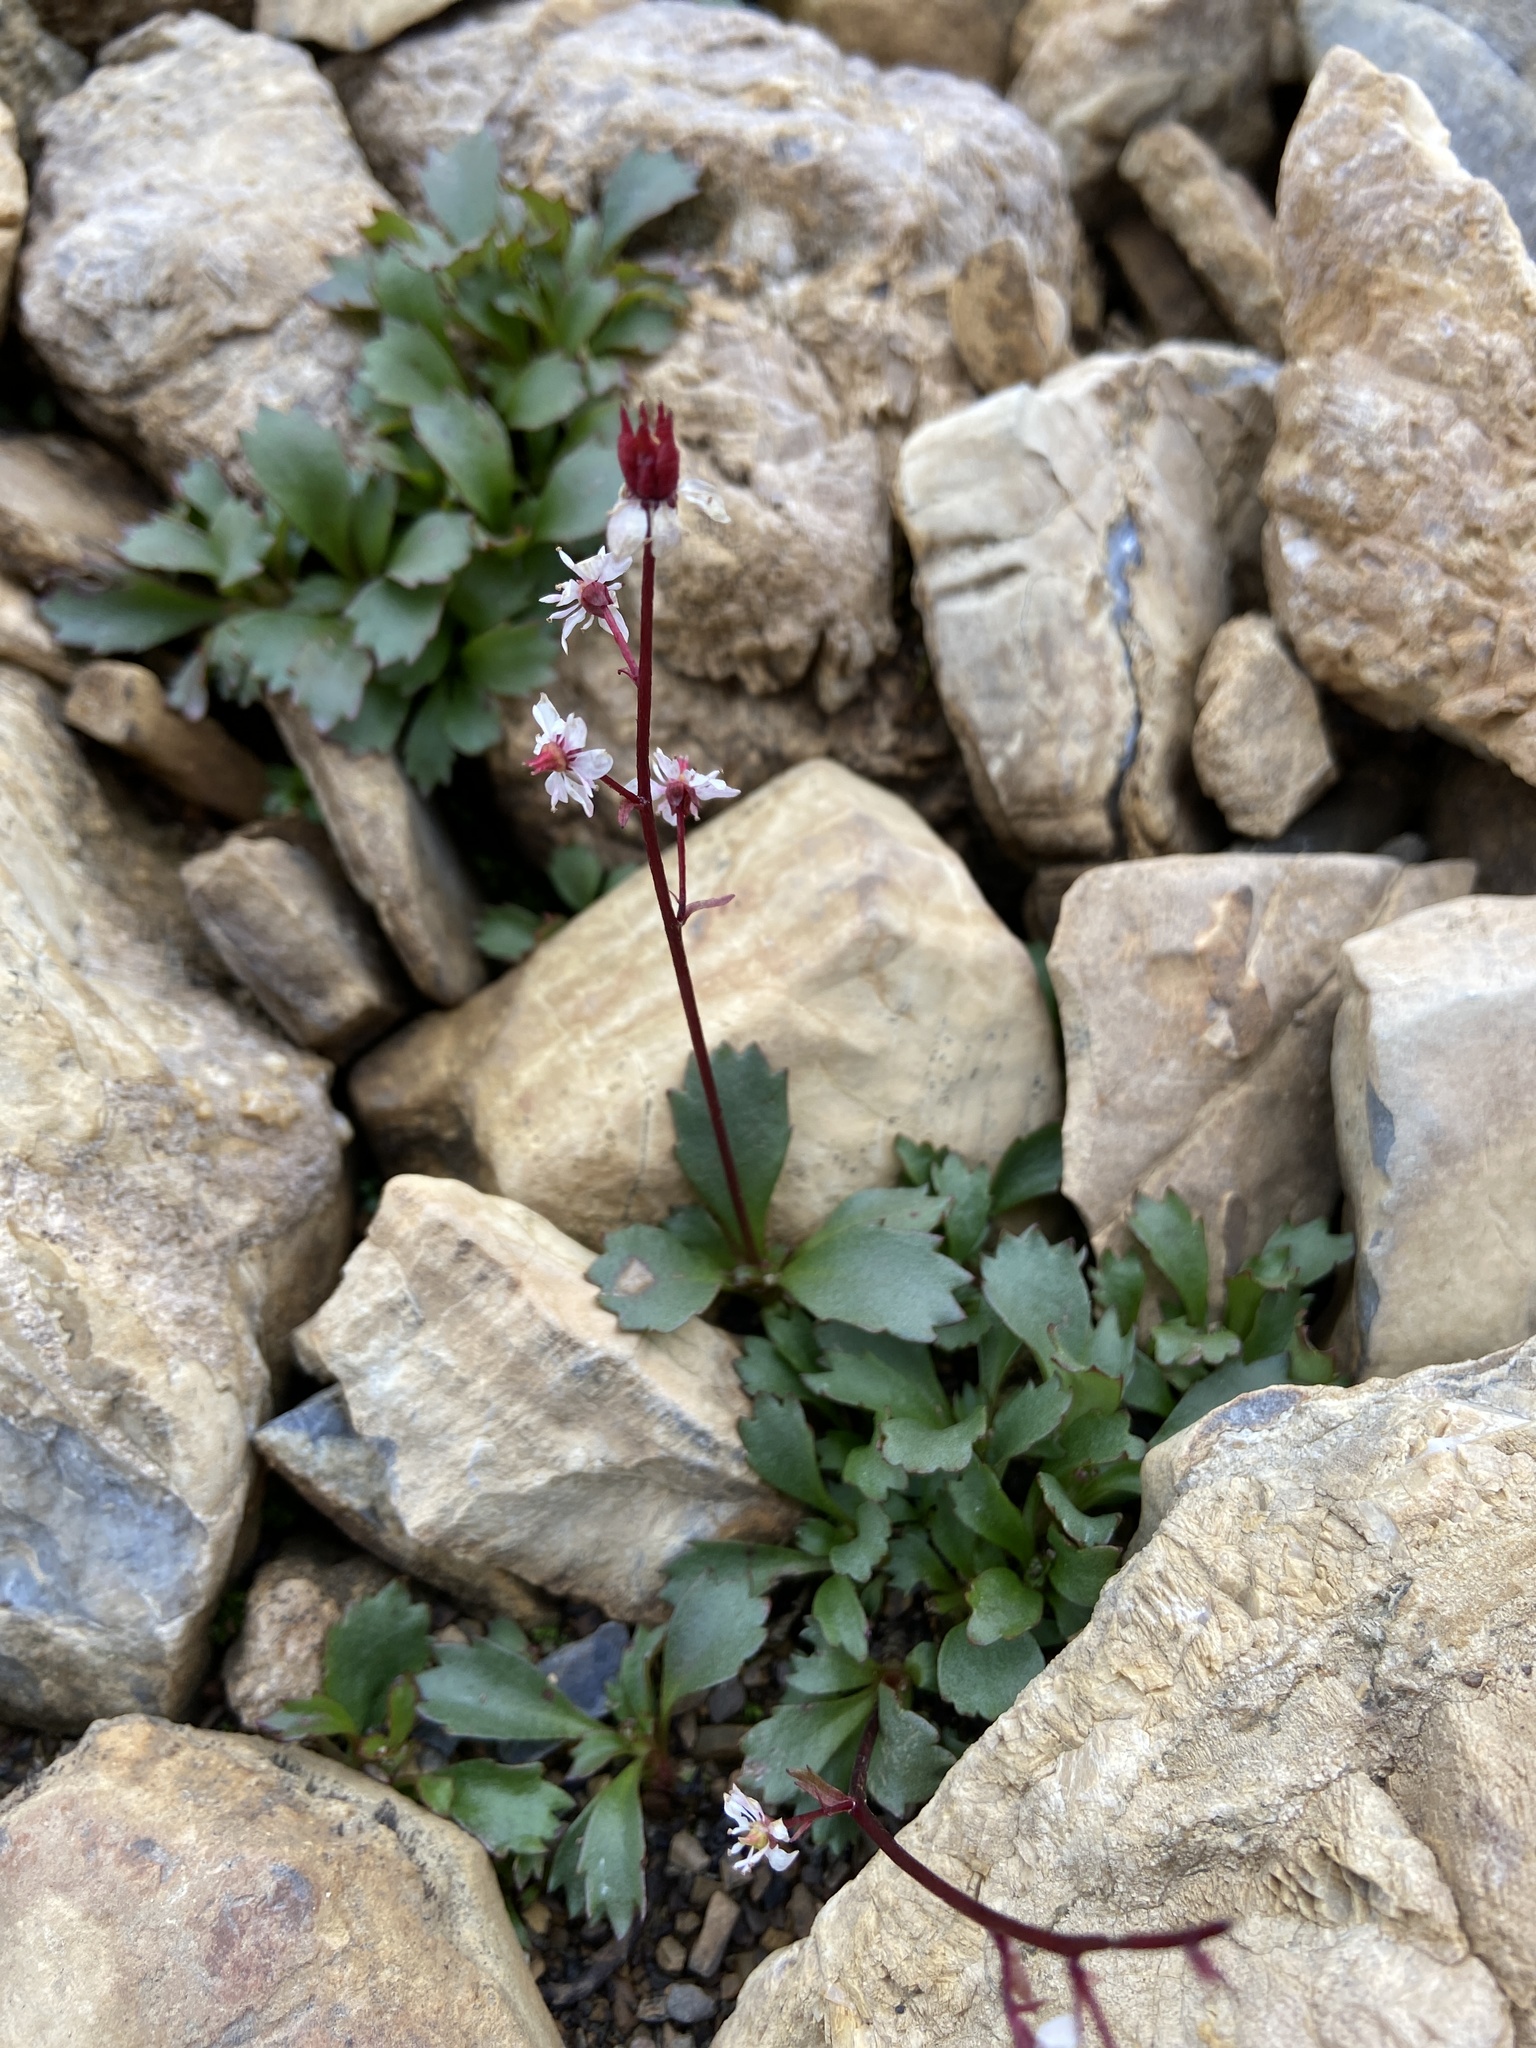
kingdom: Plantae
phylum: Tracheophyta
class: Magnoliopsida
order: Saxifragales
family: Saxifragaceae
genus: Micranthes
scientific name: Micranthes lyallii
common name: Lyall's saxifrage
